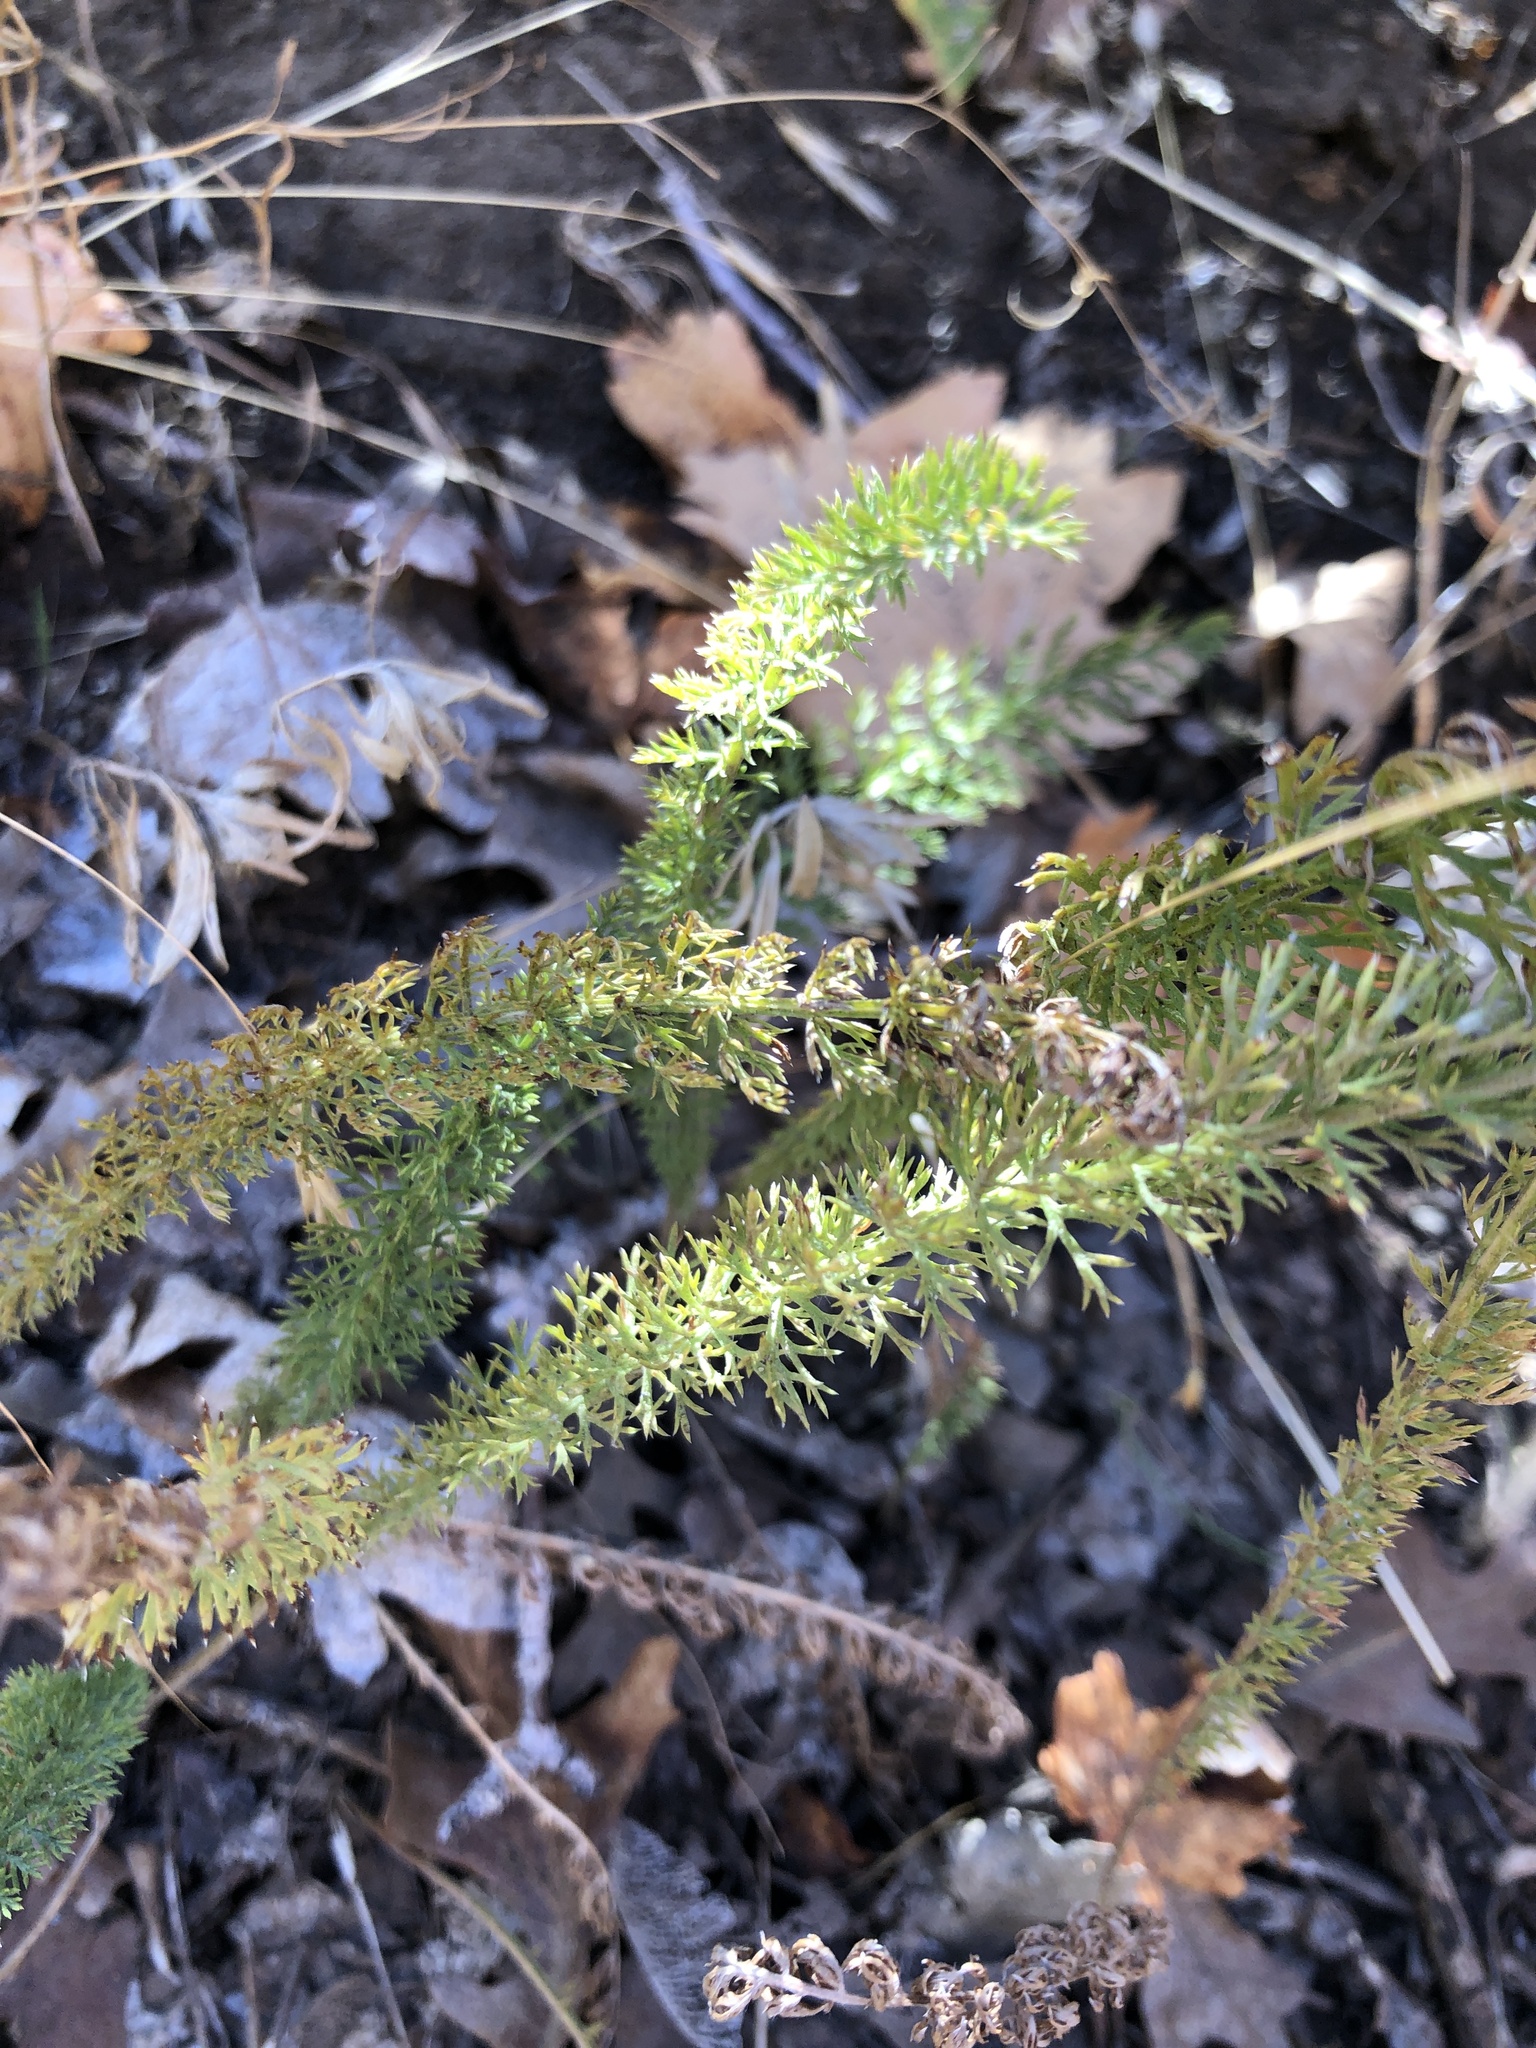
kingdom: Plantae
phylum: Tracheophyta
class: Magnoliopsida
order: Asterales
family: Asteraceae
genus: Achillea
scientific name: Achillea millefolium
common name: Yarrow
